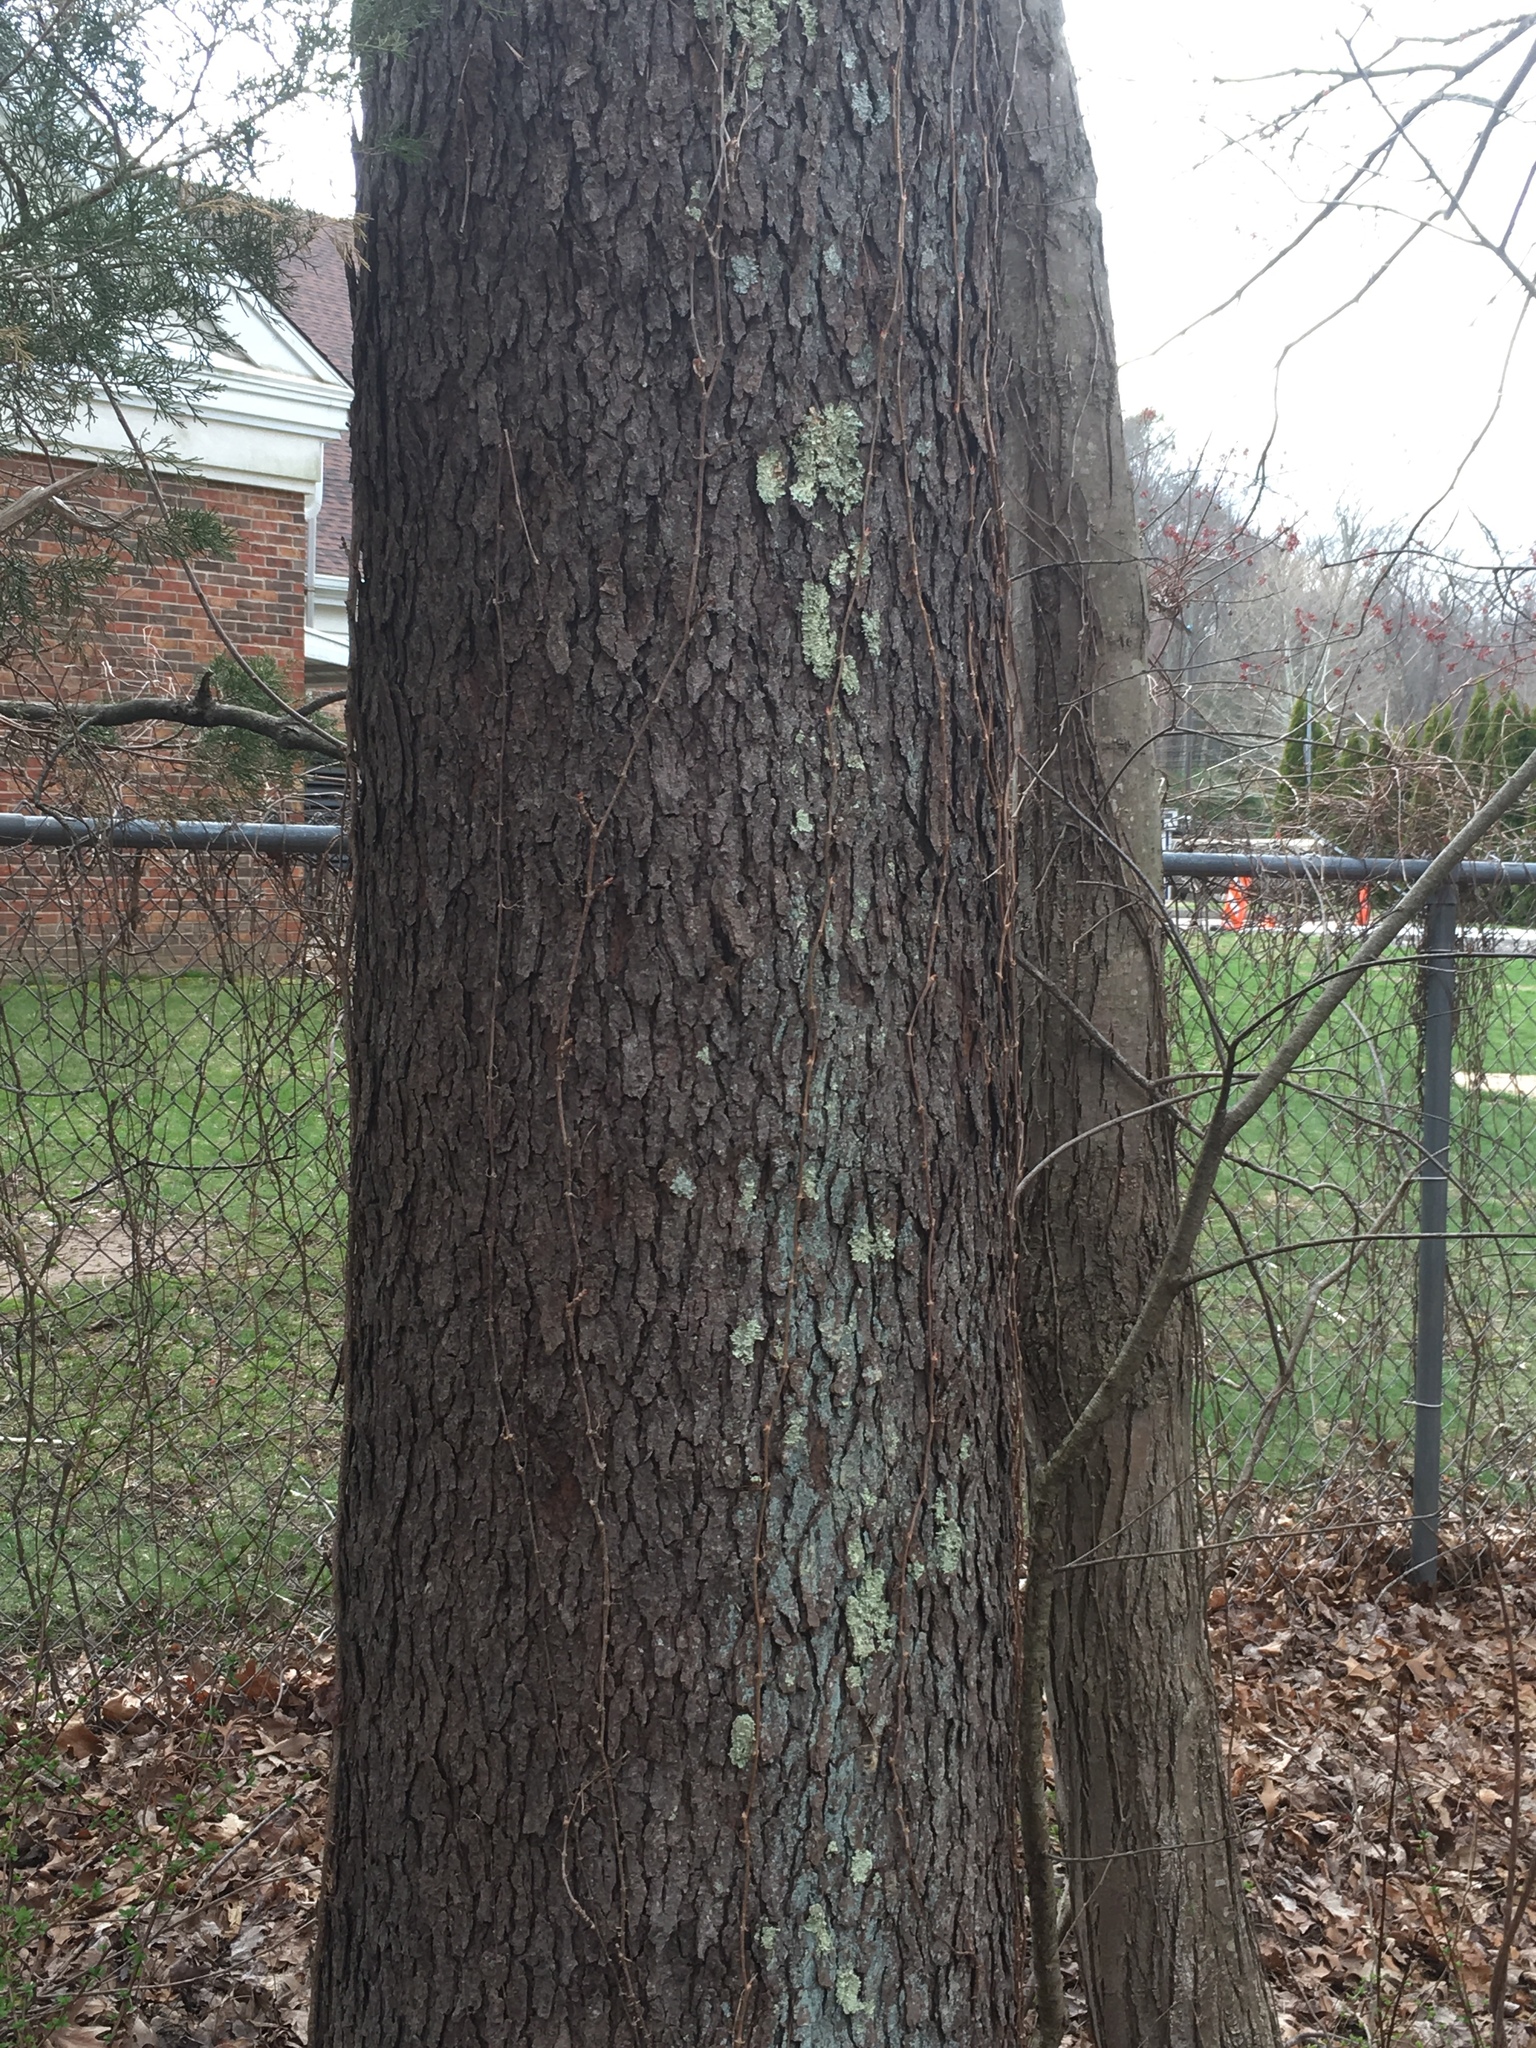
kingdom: Plantae
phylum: Tracheophyta
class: Magnoliopsida
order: Rosales
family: Rosaceae
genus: Prunus
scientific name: Prunus serotina
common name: Black cherry
